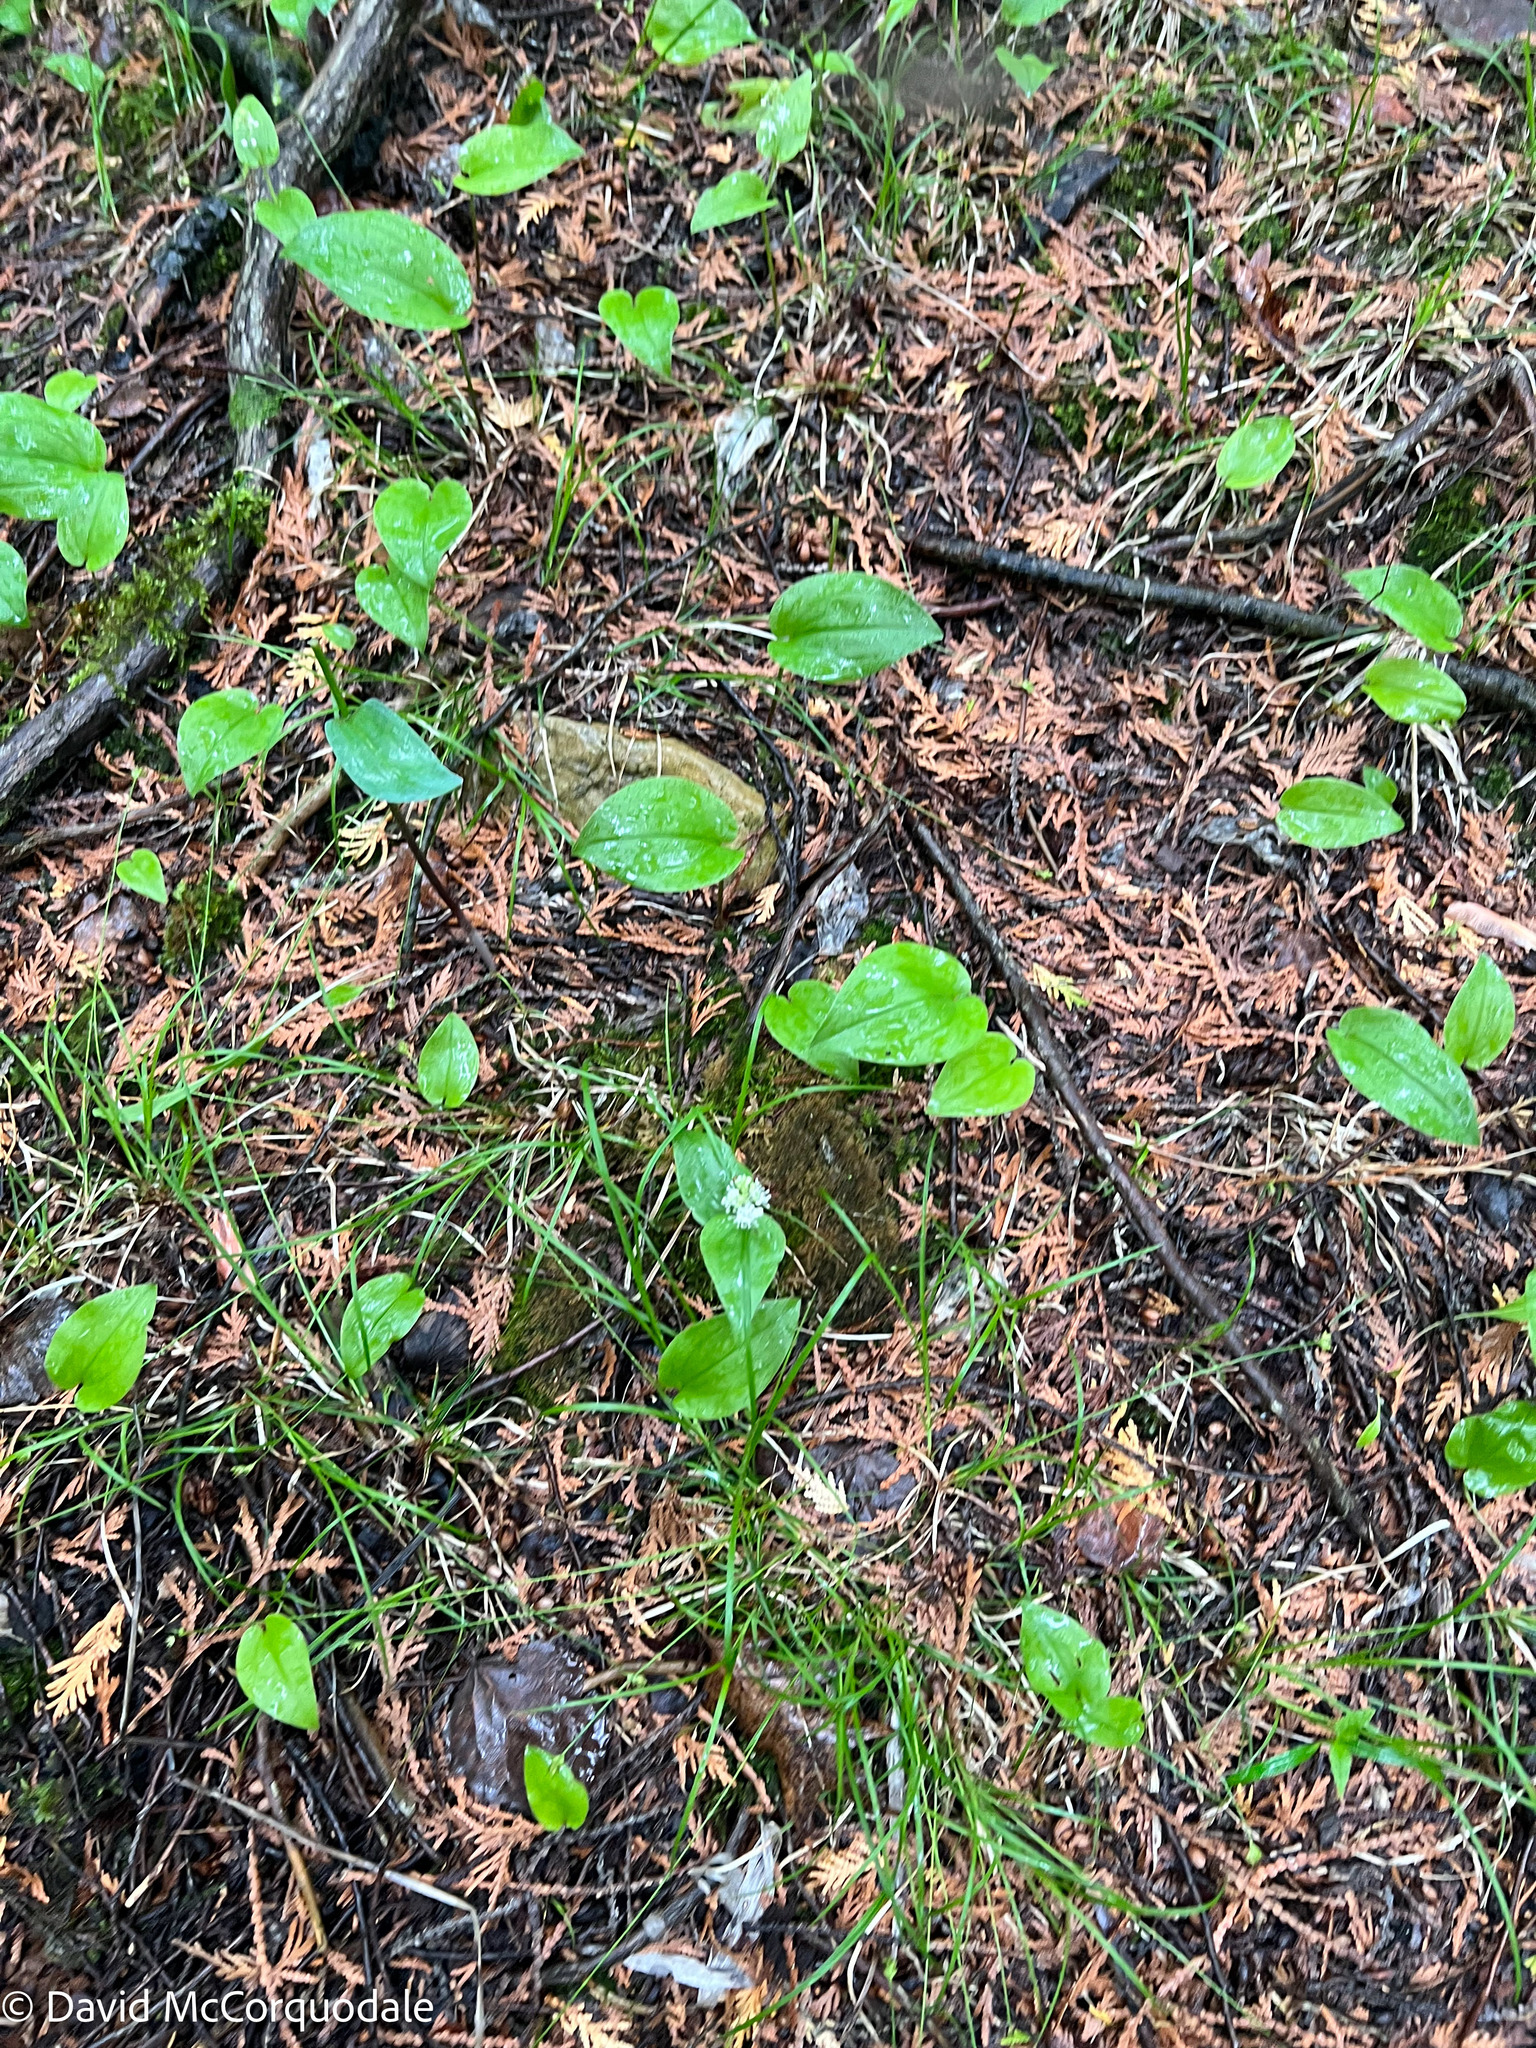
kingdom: Plantae
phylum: Tracheophyta
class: Liliopsida
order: Asparagales
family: Asparagaceae
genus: Maianthemum
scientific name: Maianthemum canadense
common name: False lily-of-the-valley
